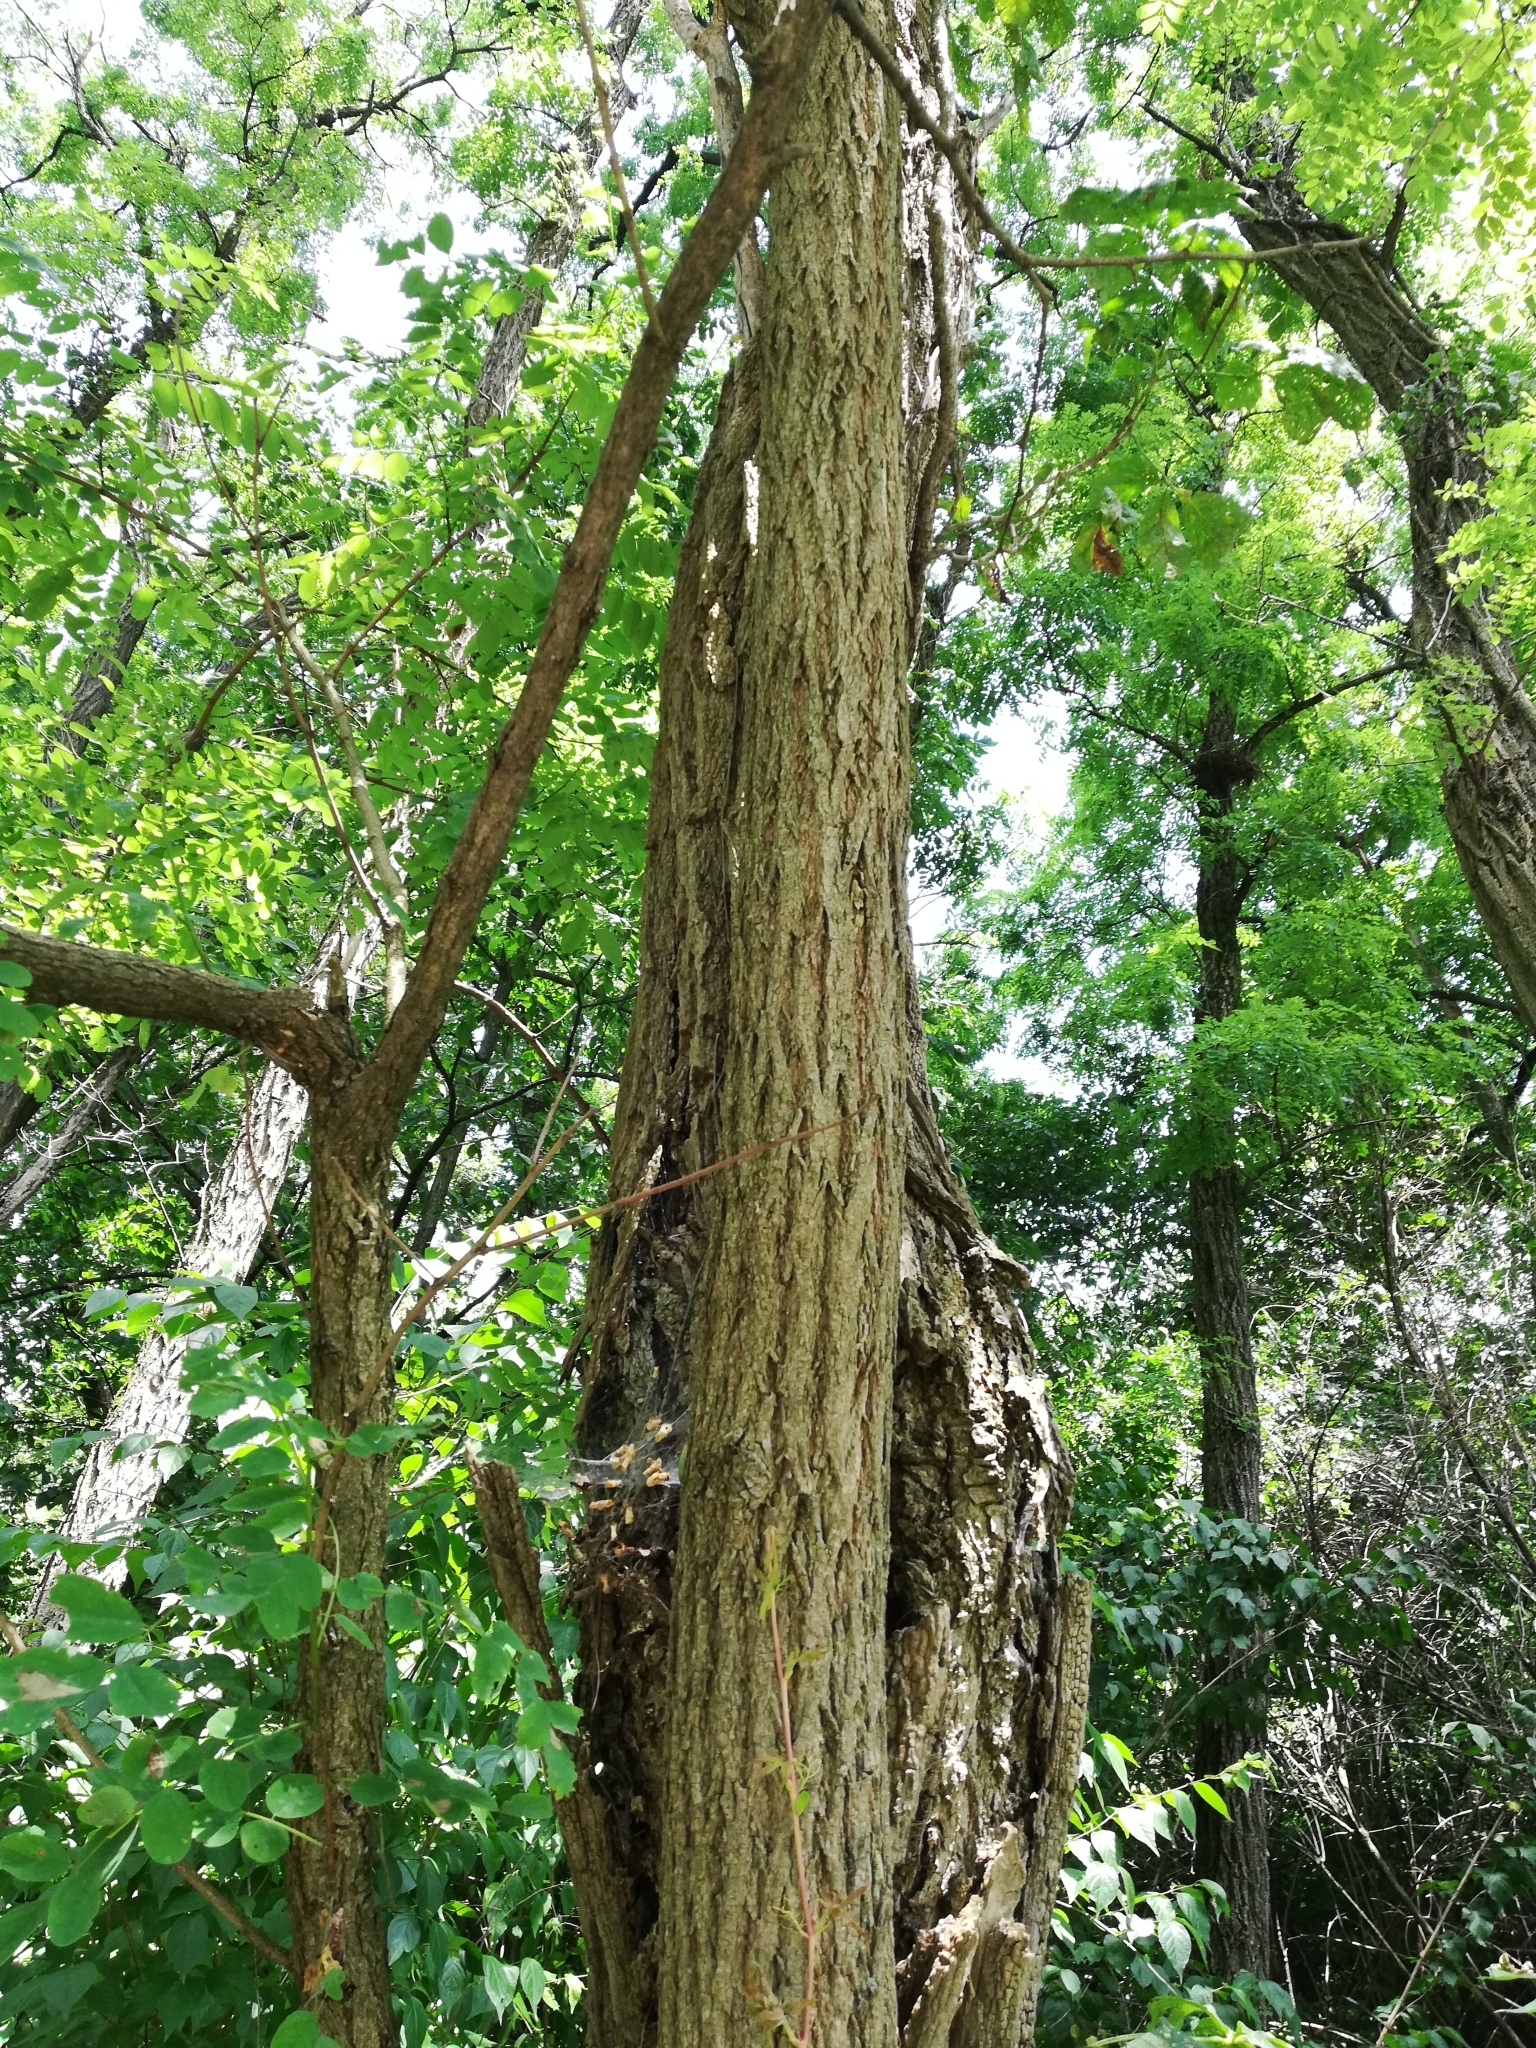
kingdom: Plantae
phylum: Tracheophyta
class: Magnoliopsida
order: Fabales
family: Fabaceae
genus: Robinia
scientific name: Robinia pseudoacacia
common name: Black locust
